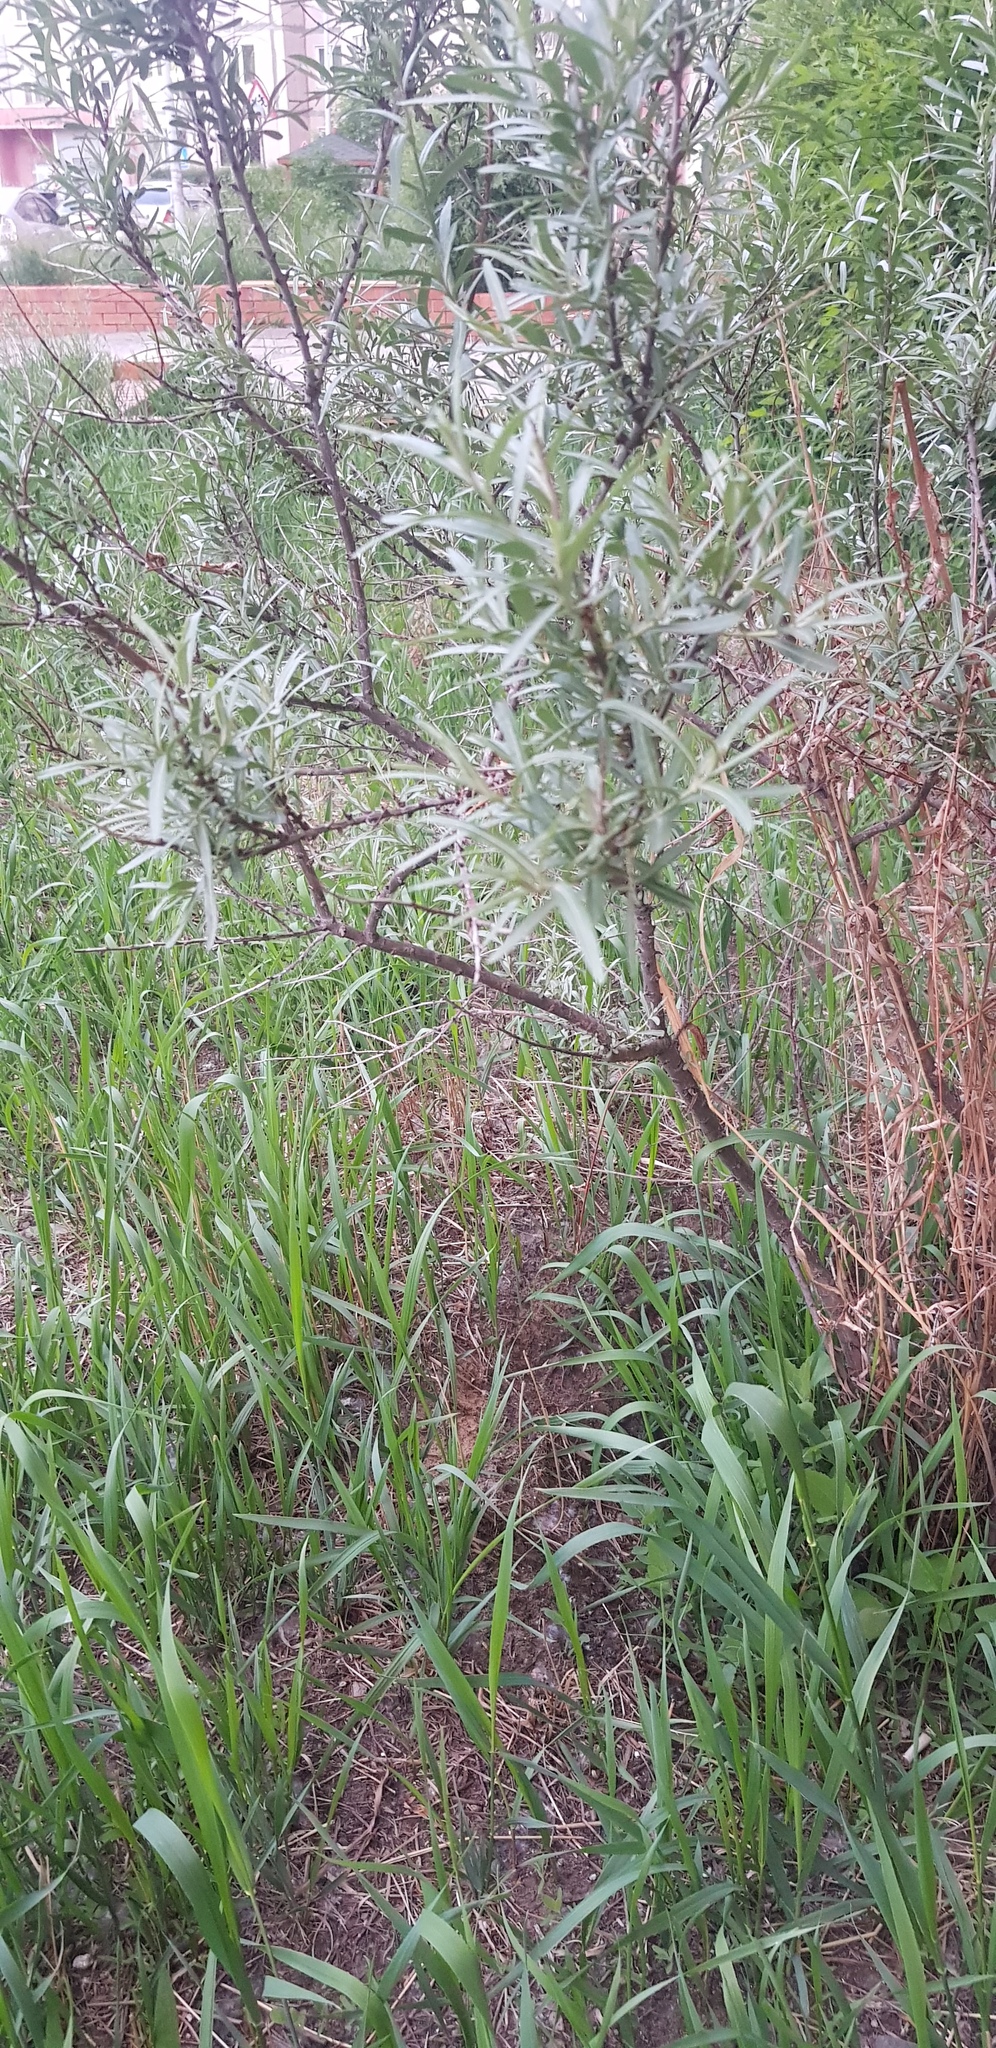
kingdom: Plantae
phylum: Tracheophyta
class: Magnoliopsida
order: Rosales
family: Elaeagnaceae
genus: Hippophae
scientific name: Hippophae rhamnoides
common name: Sea-buckthorn
